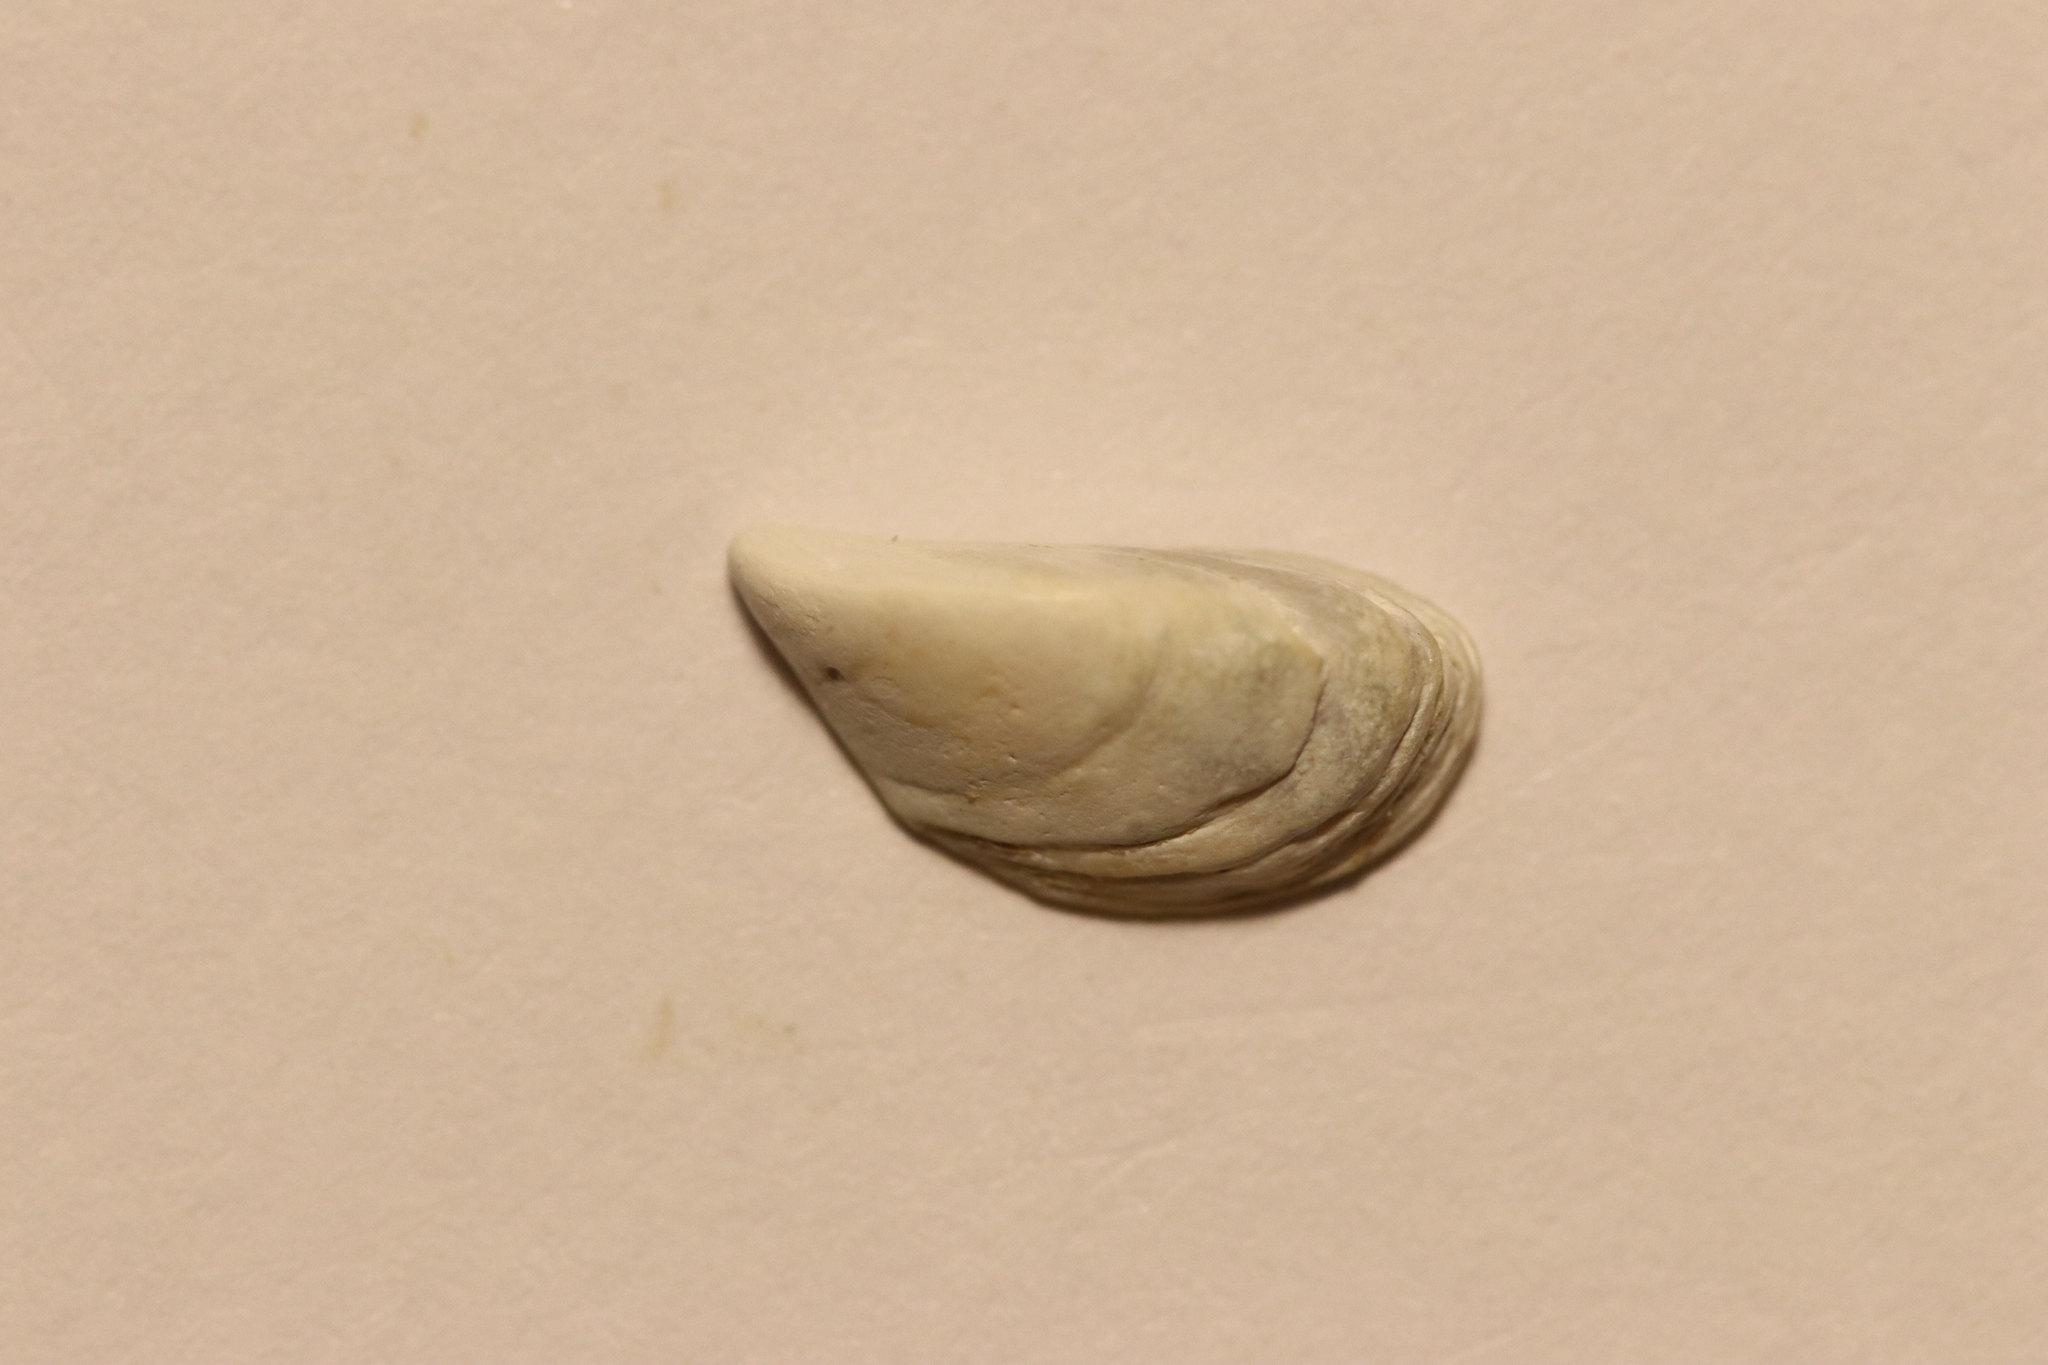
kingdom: Animalia
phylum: Mollusca
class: Bivalvia
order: Myida
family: Dreissenidae
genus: Dreissena
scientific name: Dreissena polymorpha
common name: Zebra mussel
